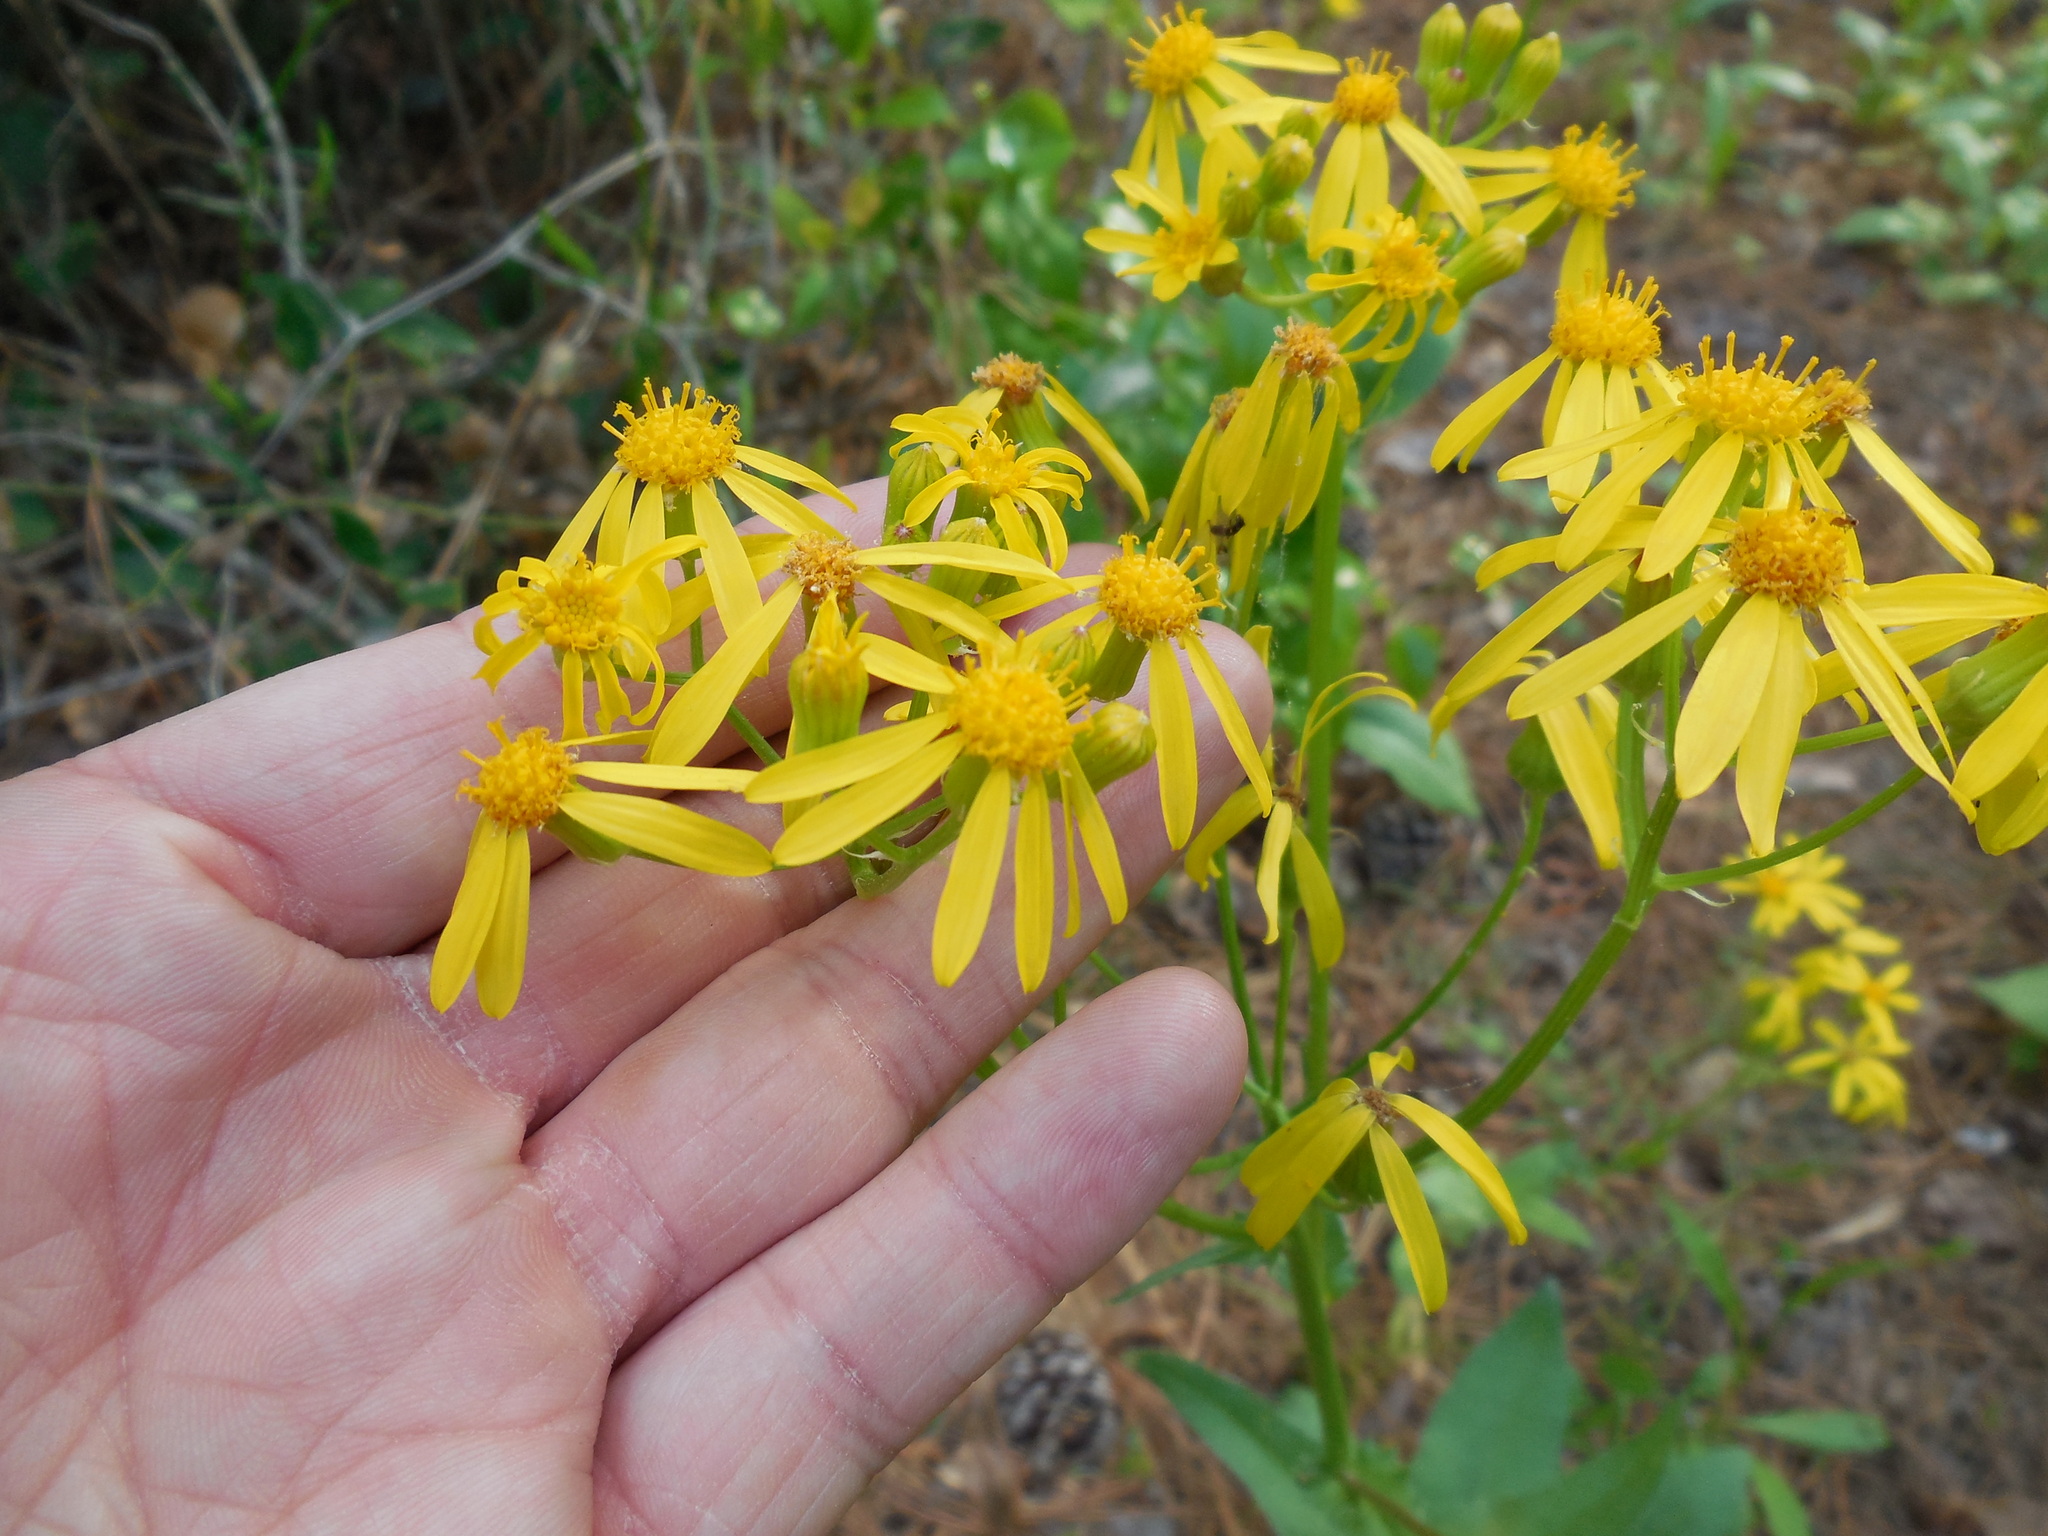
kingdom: Plantae
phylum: Tracheophyta
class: Magnoliopsida
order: Asterales
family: Asteraceae
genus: Senecio
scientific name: Senecio ampullaceus
